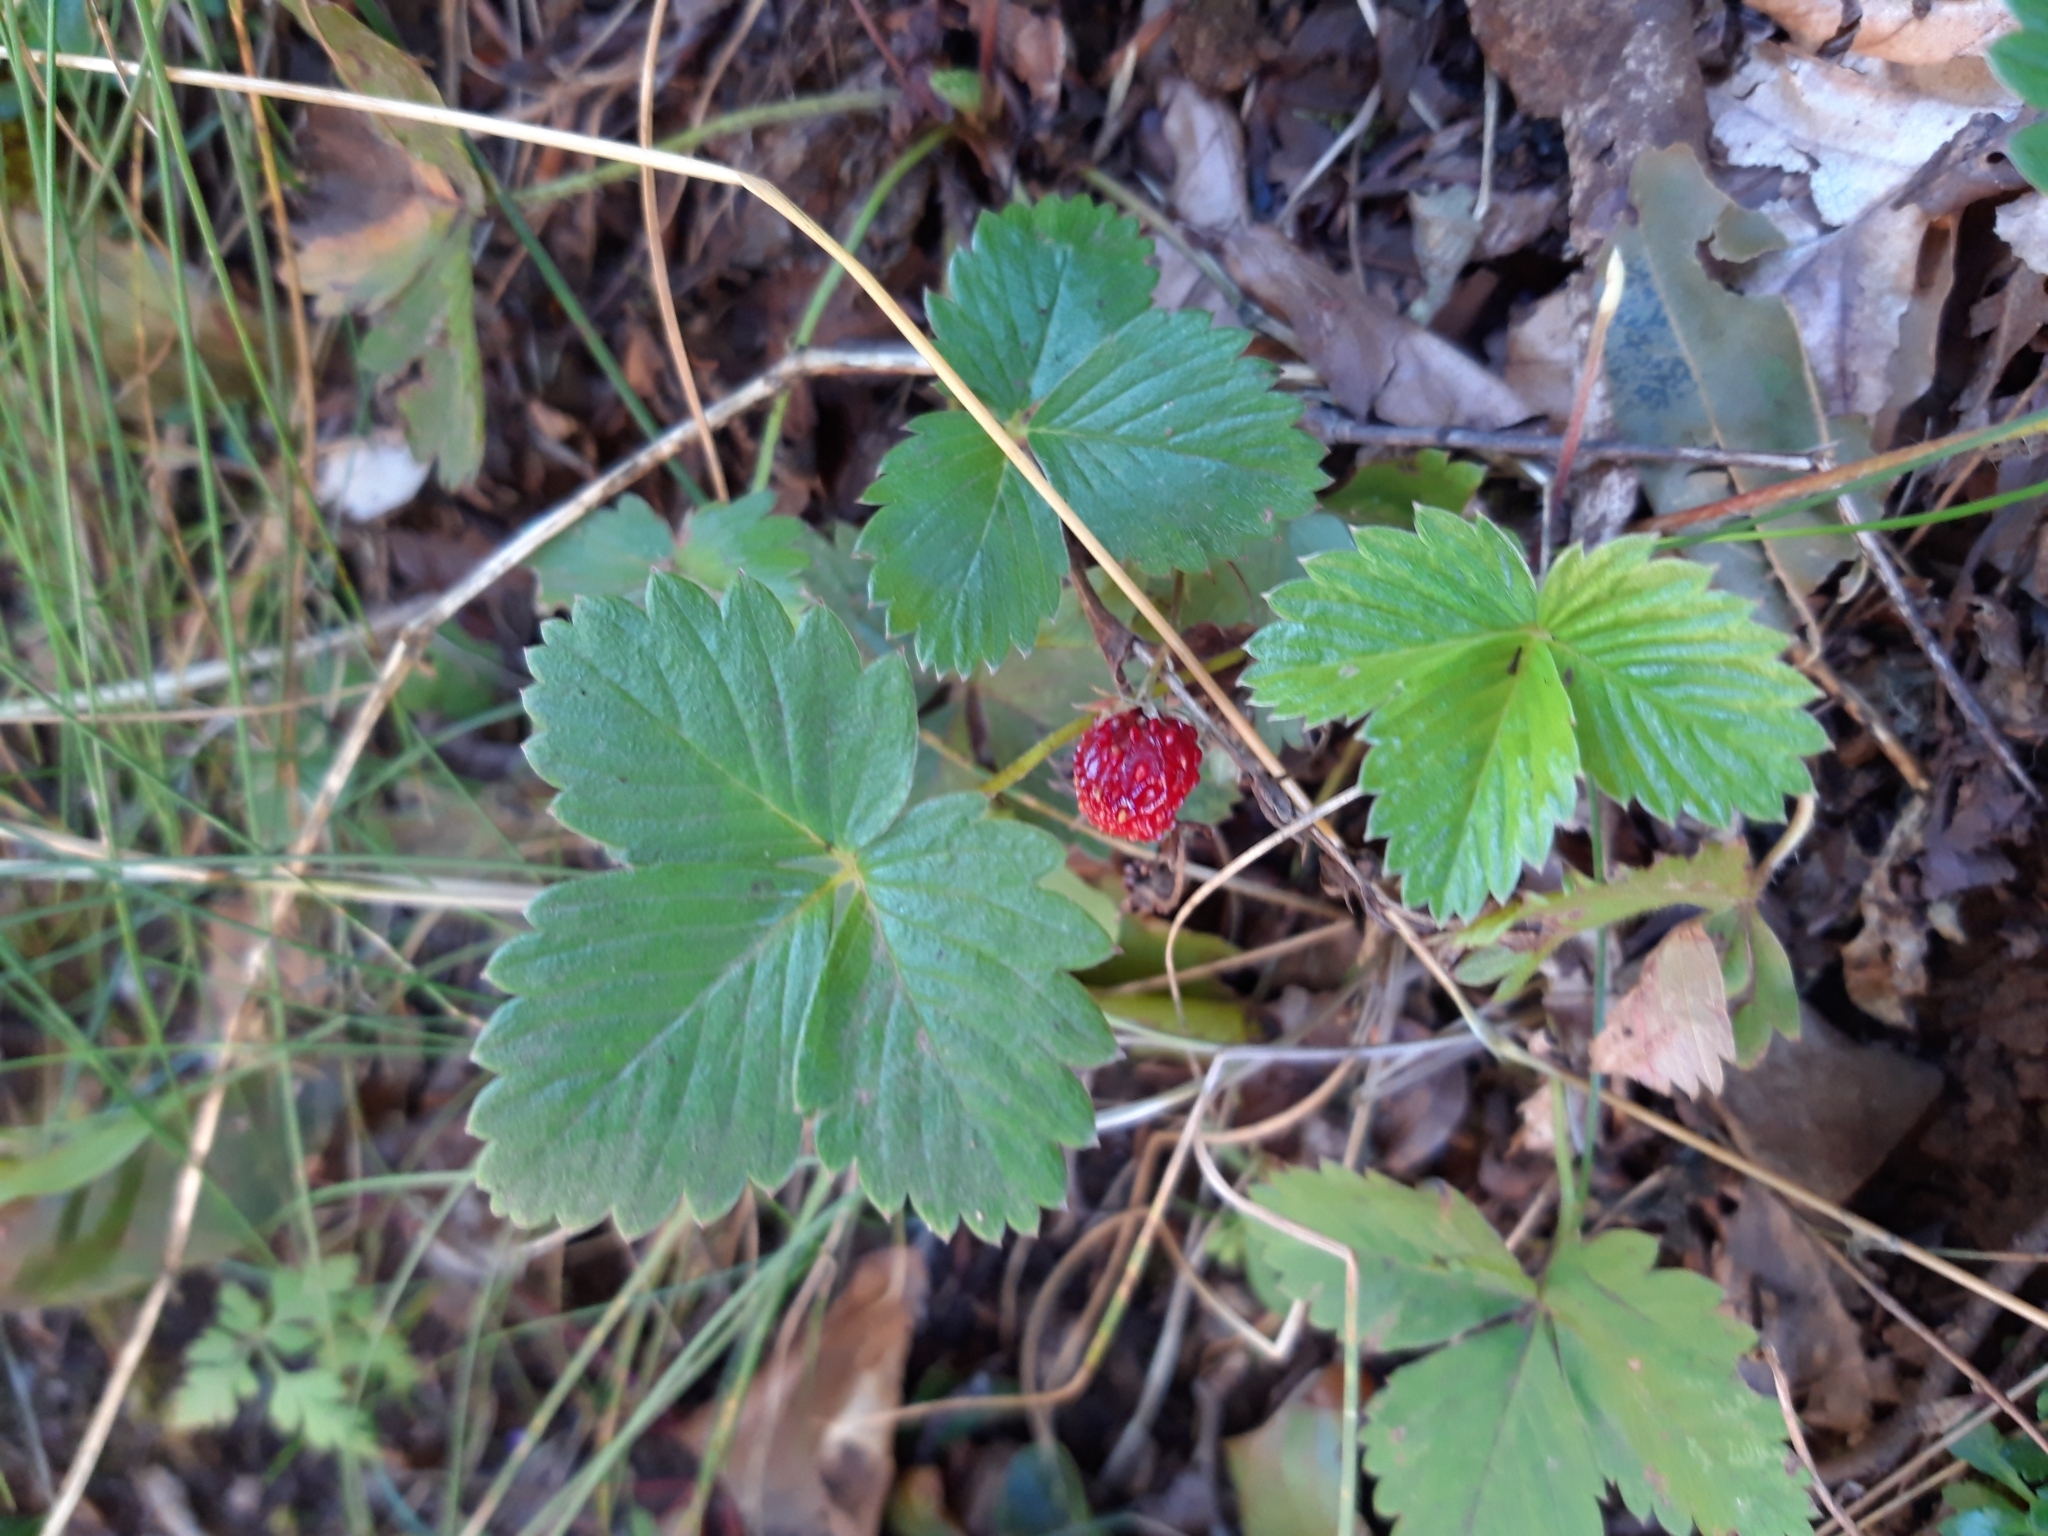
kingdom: Plantae
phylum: Tracheophyta
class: Magnoliopsida
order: Rosales
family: Rosaceae
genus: Fragaria
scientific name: Fragaria vesca
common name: Wild strawberry
